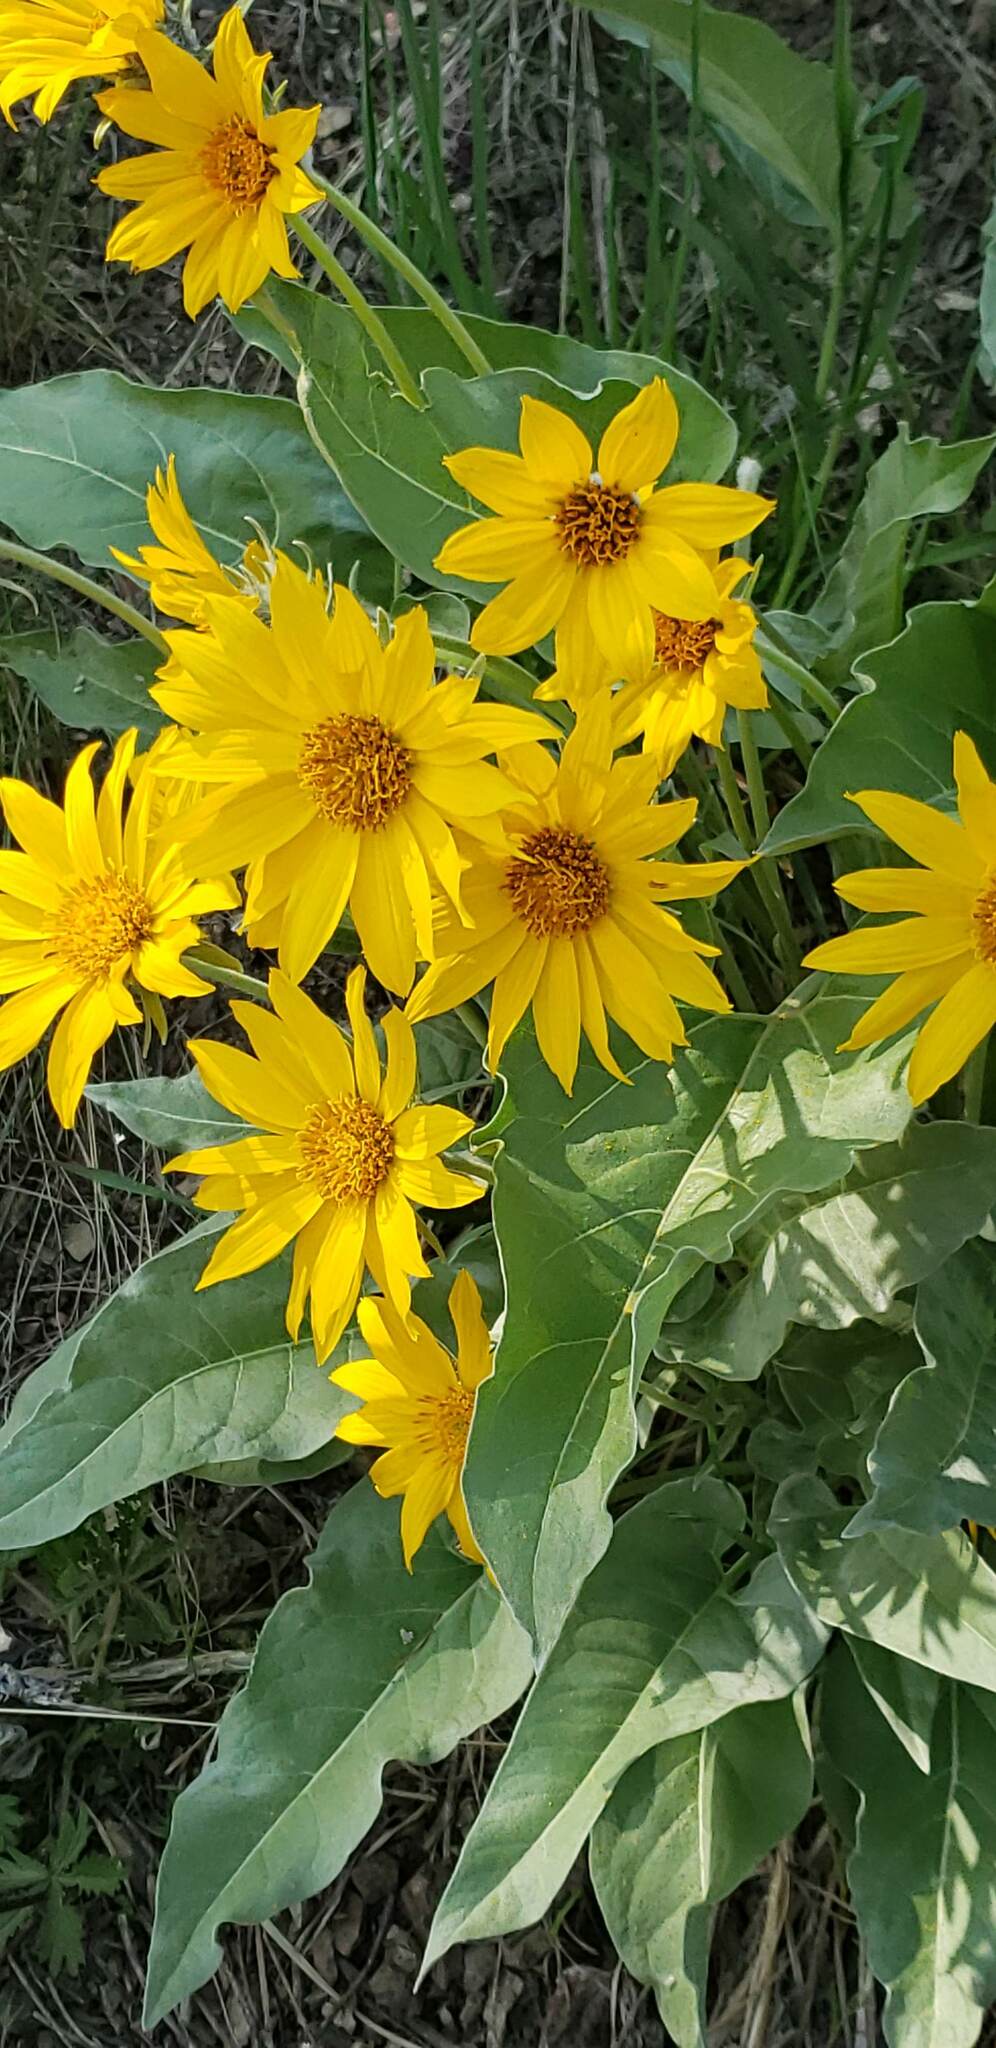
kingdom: Plantae
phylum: Tracheophyta
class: Magnoliopsida
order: Asterales
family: Asteraceae
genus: Wyethia
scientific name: Wyethia sagittata
